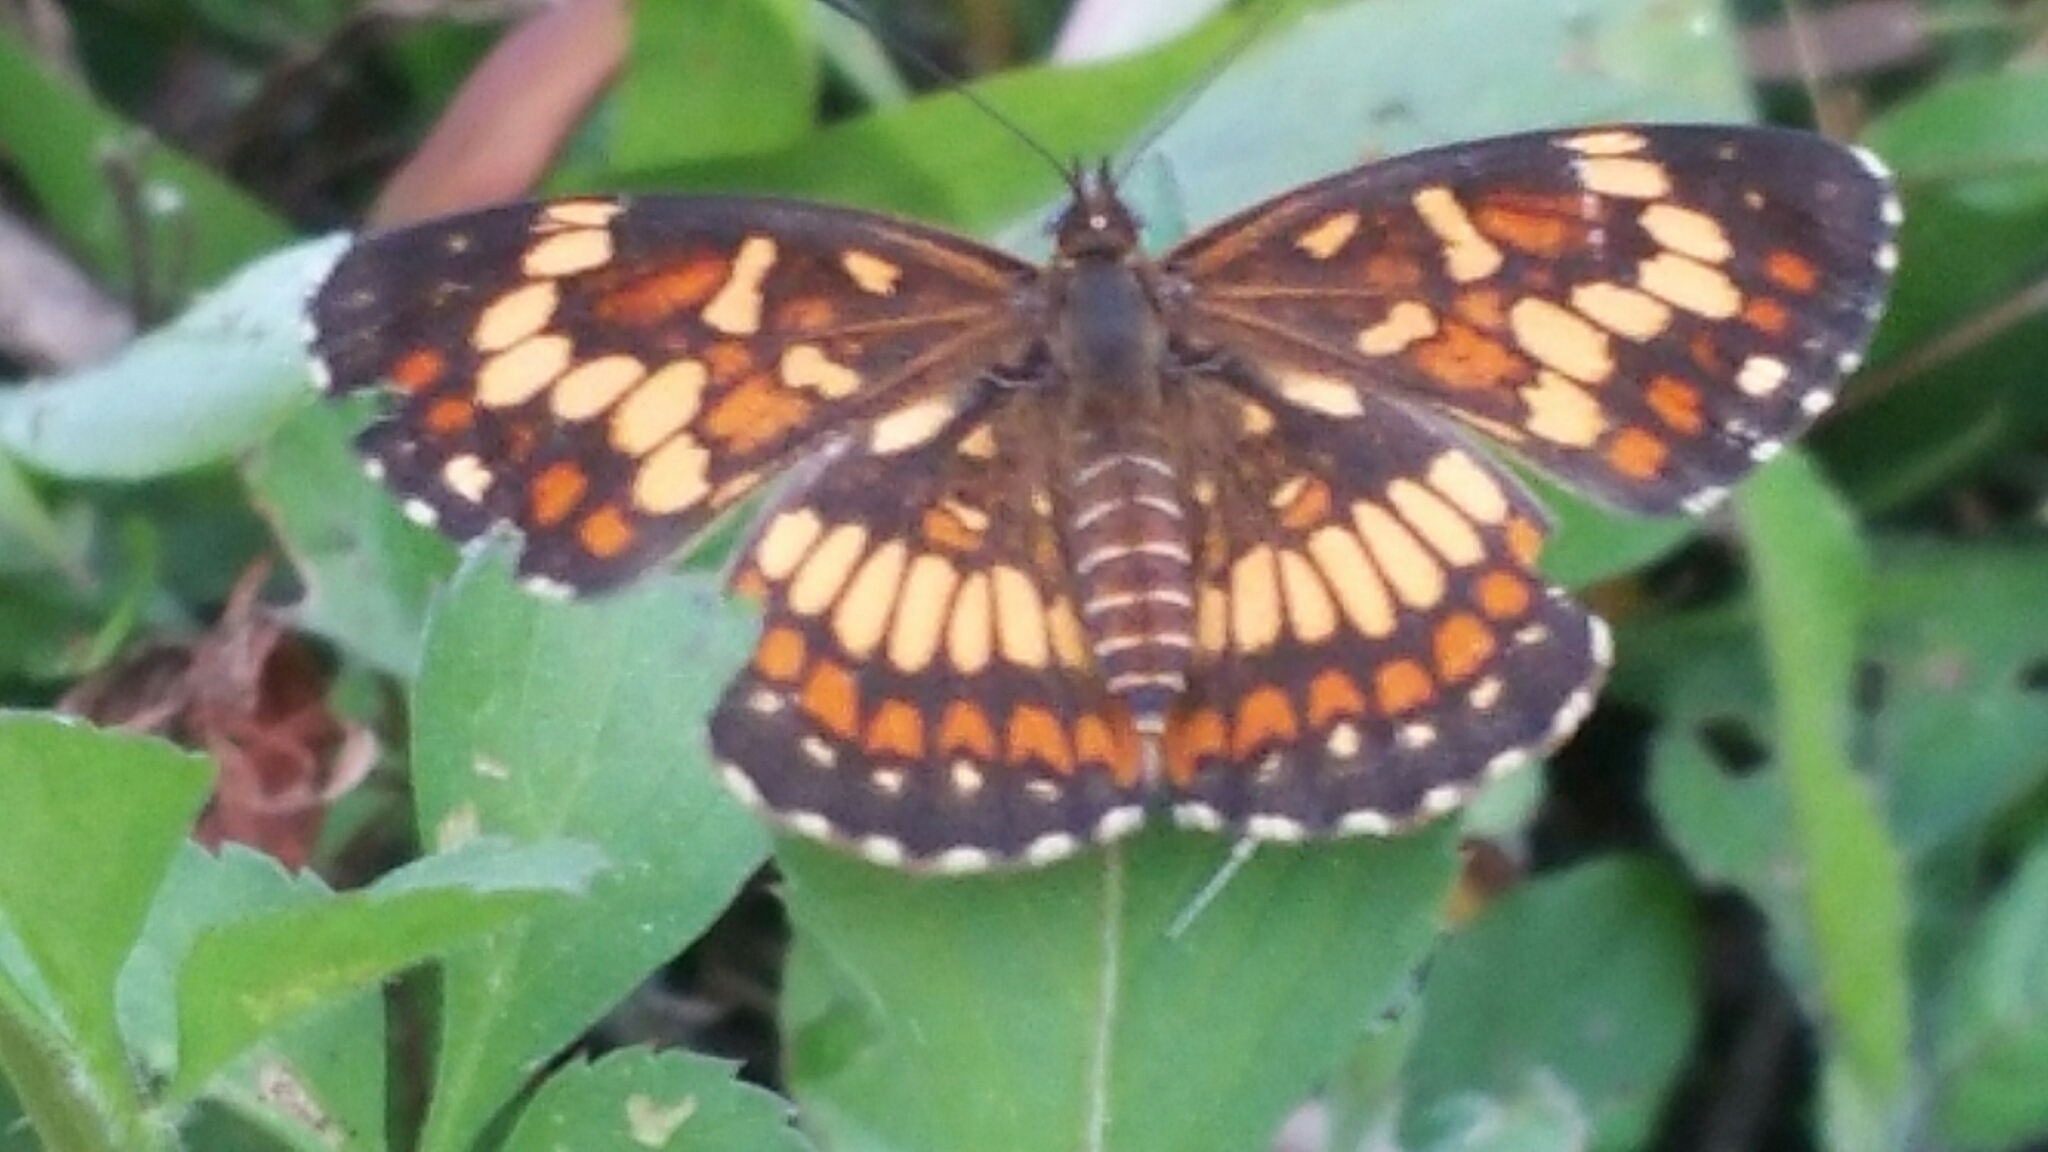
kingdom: Animalia
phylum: Arthropoda
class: Insecta
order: Lepidoptera
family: Nymphalidae
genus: Thessalia
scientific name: Thessalia theona
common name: Nymphalid moth
